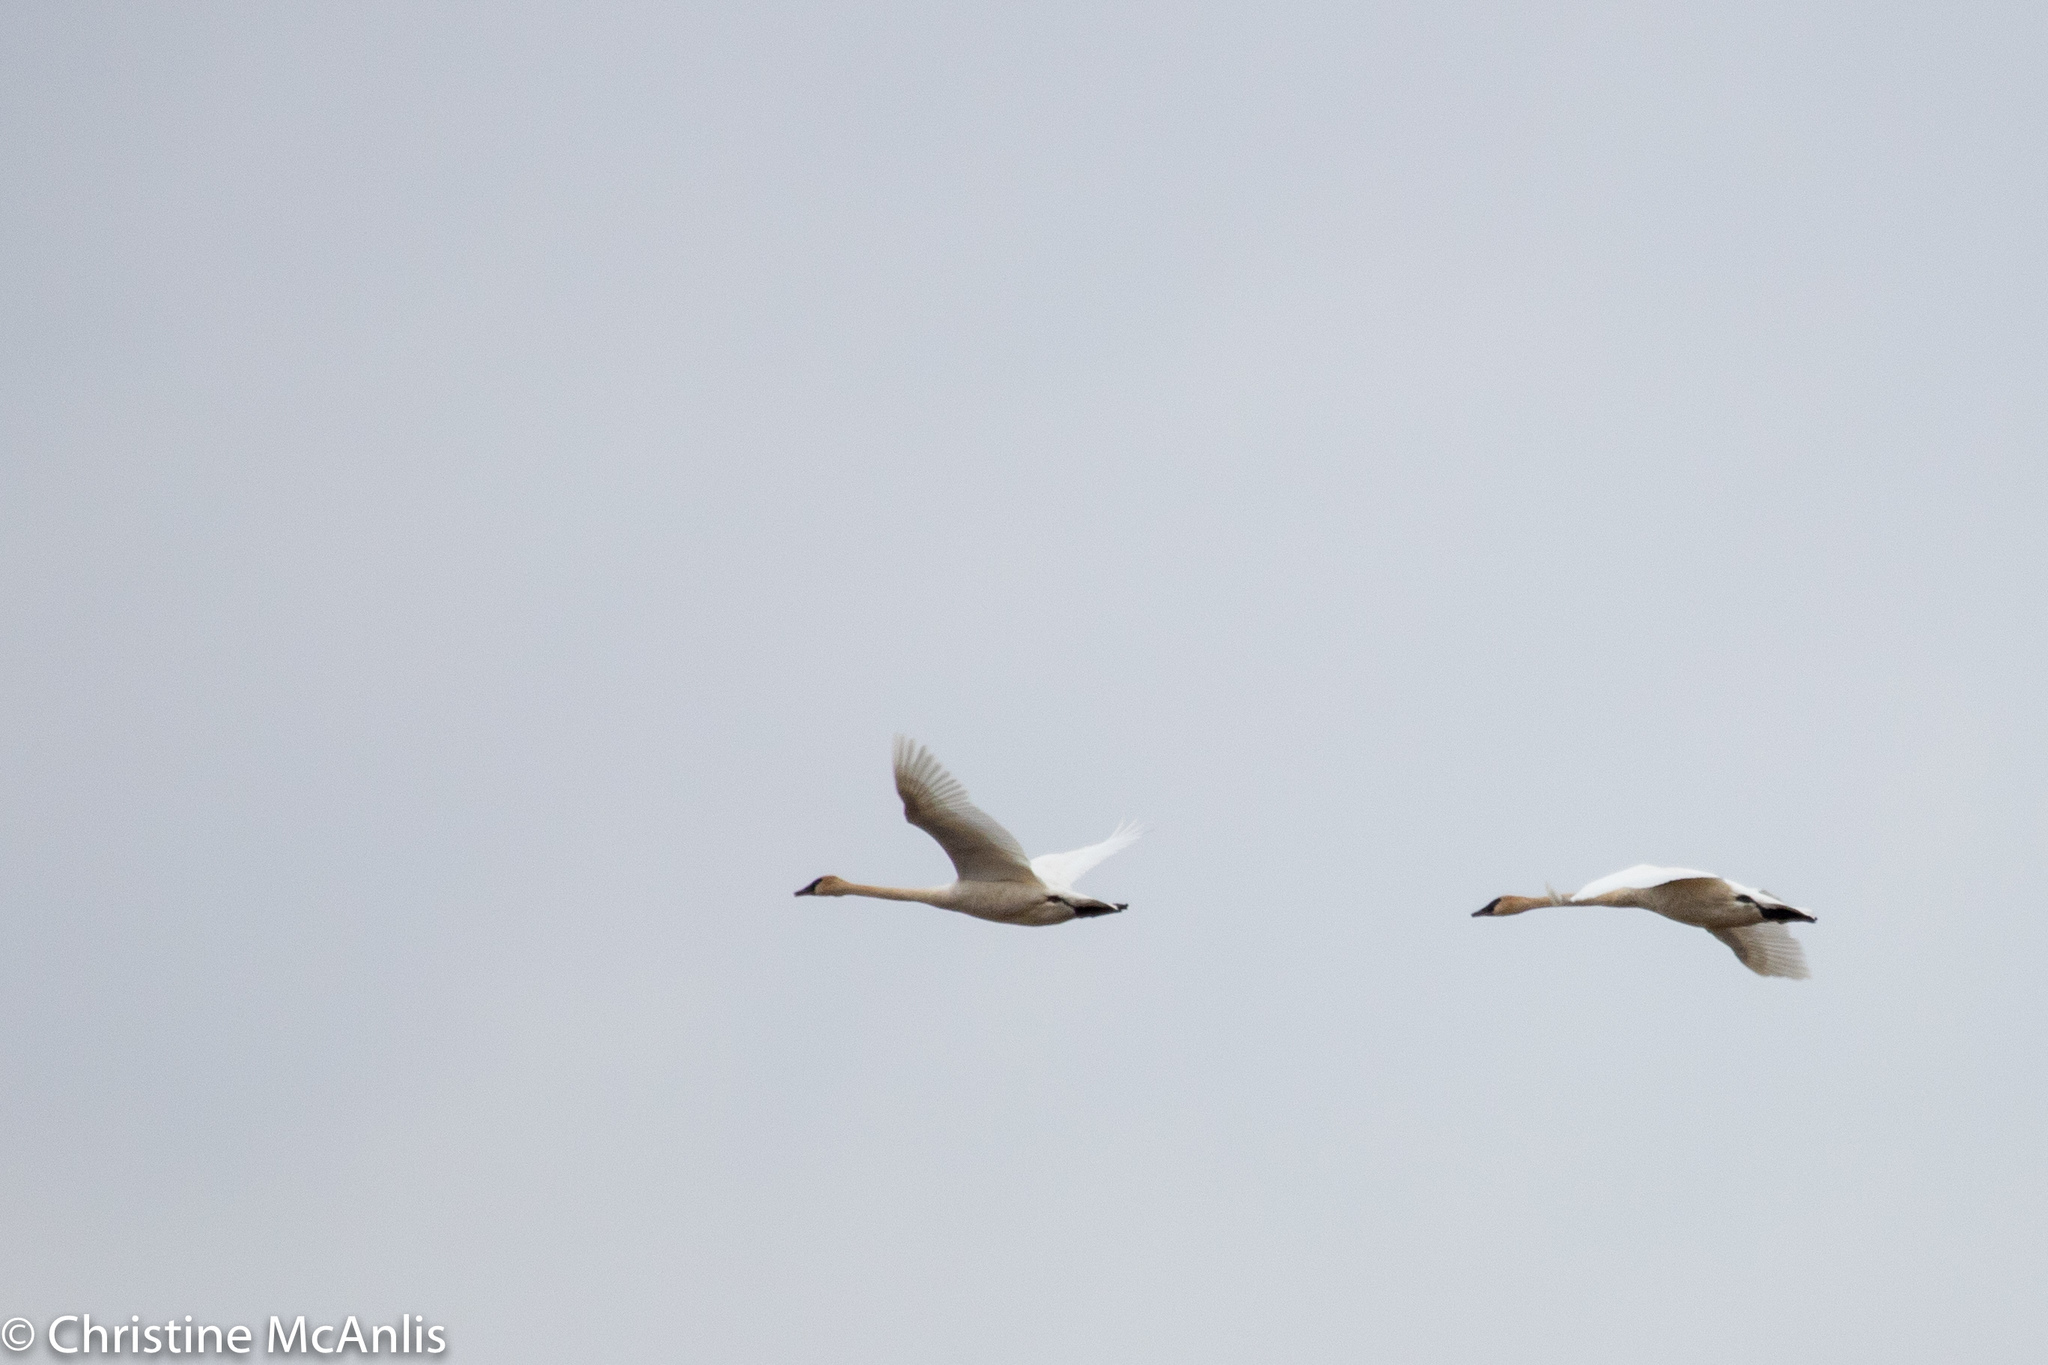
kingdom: Animalia
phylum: Chordata
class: Aves
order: Anseriformes
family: Anatidae
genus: Cygnus
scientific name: Cygnus buccinator
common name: Trumpeter swan
